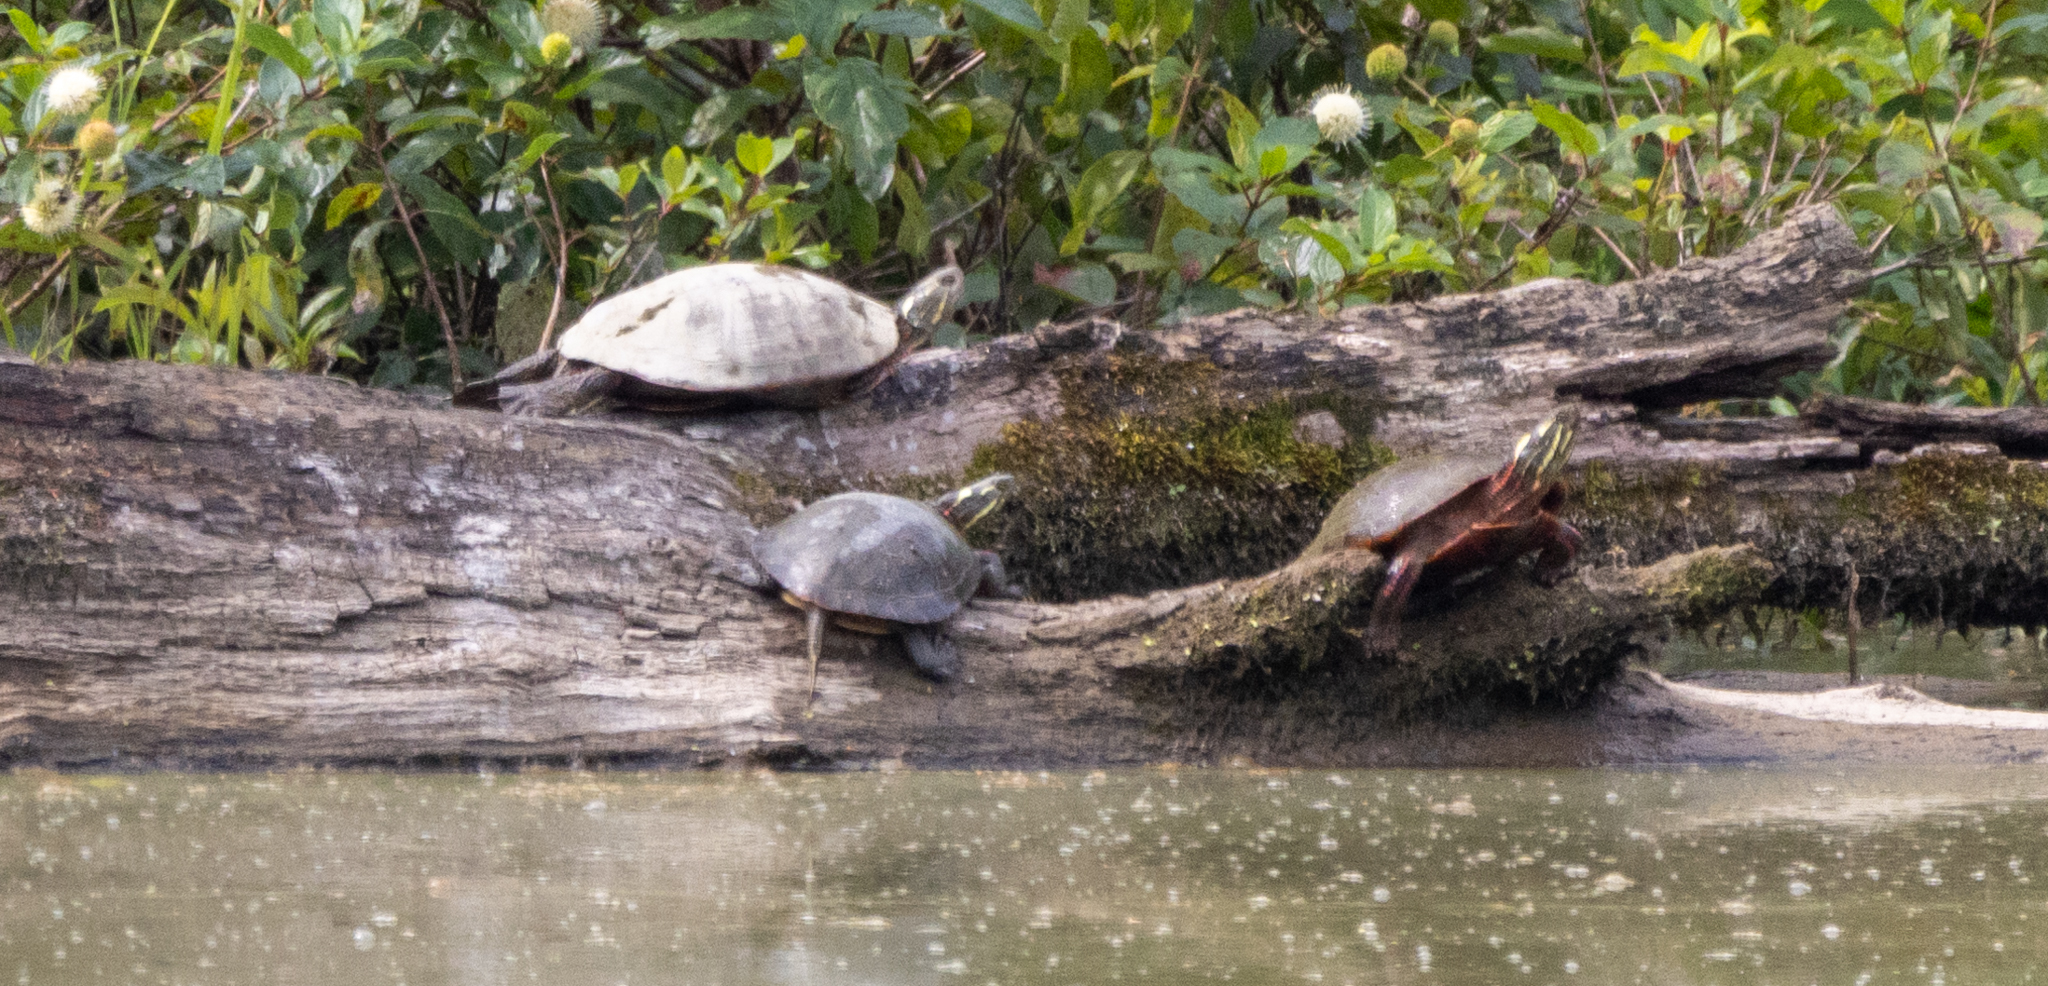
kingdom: Animalia
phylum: Chordata
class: Testudines
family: Emydidae
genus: Chrysemys
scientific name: Chrysemys picta
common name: Painted turtle
